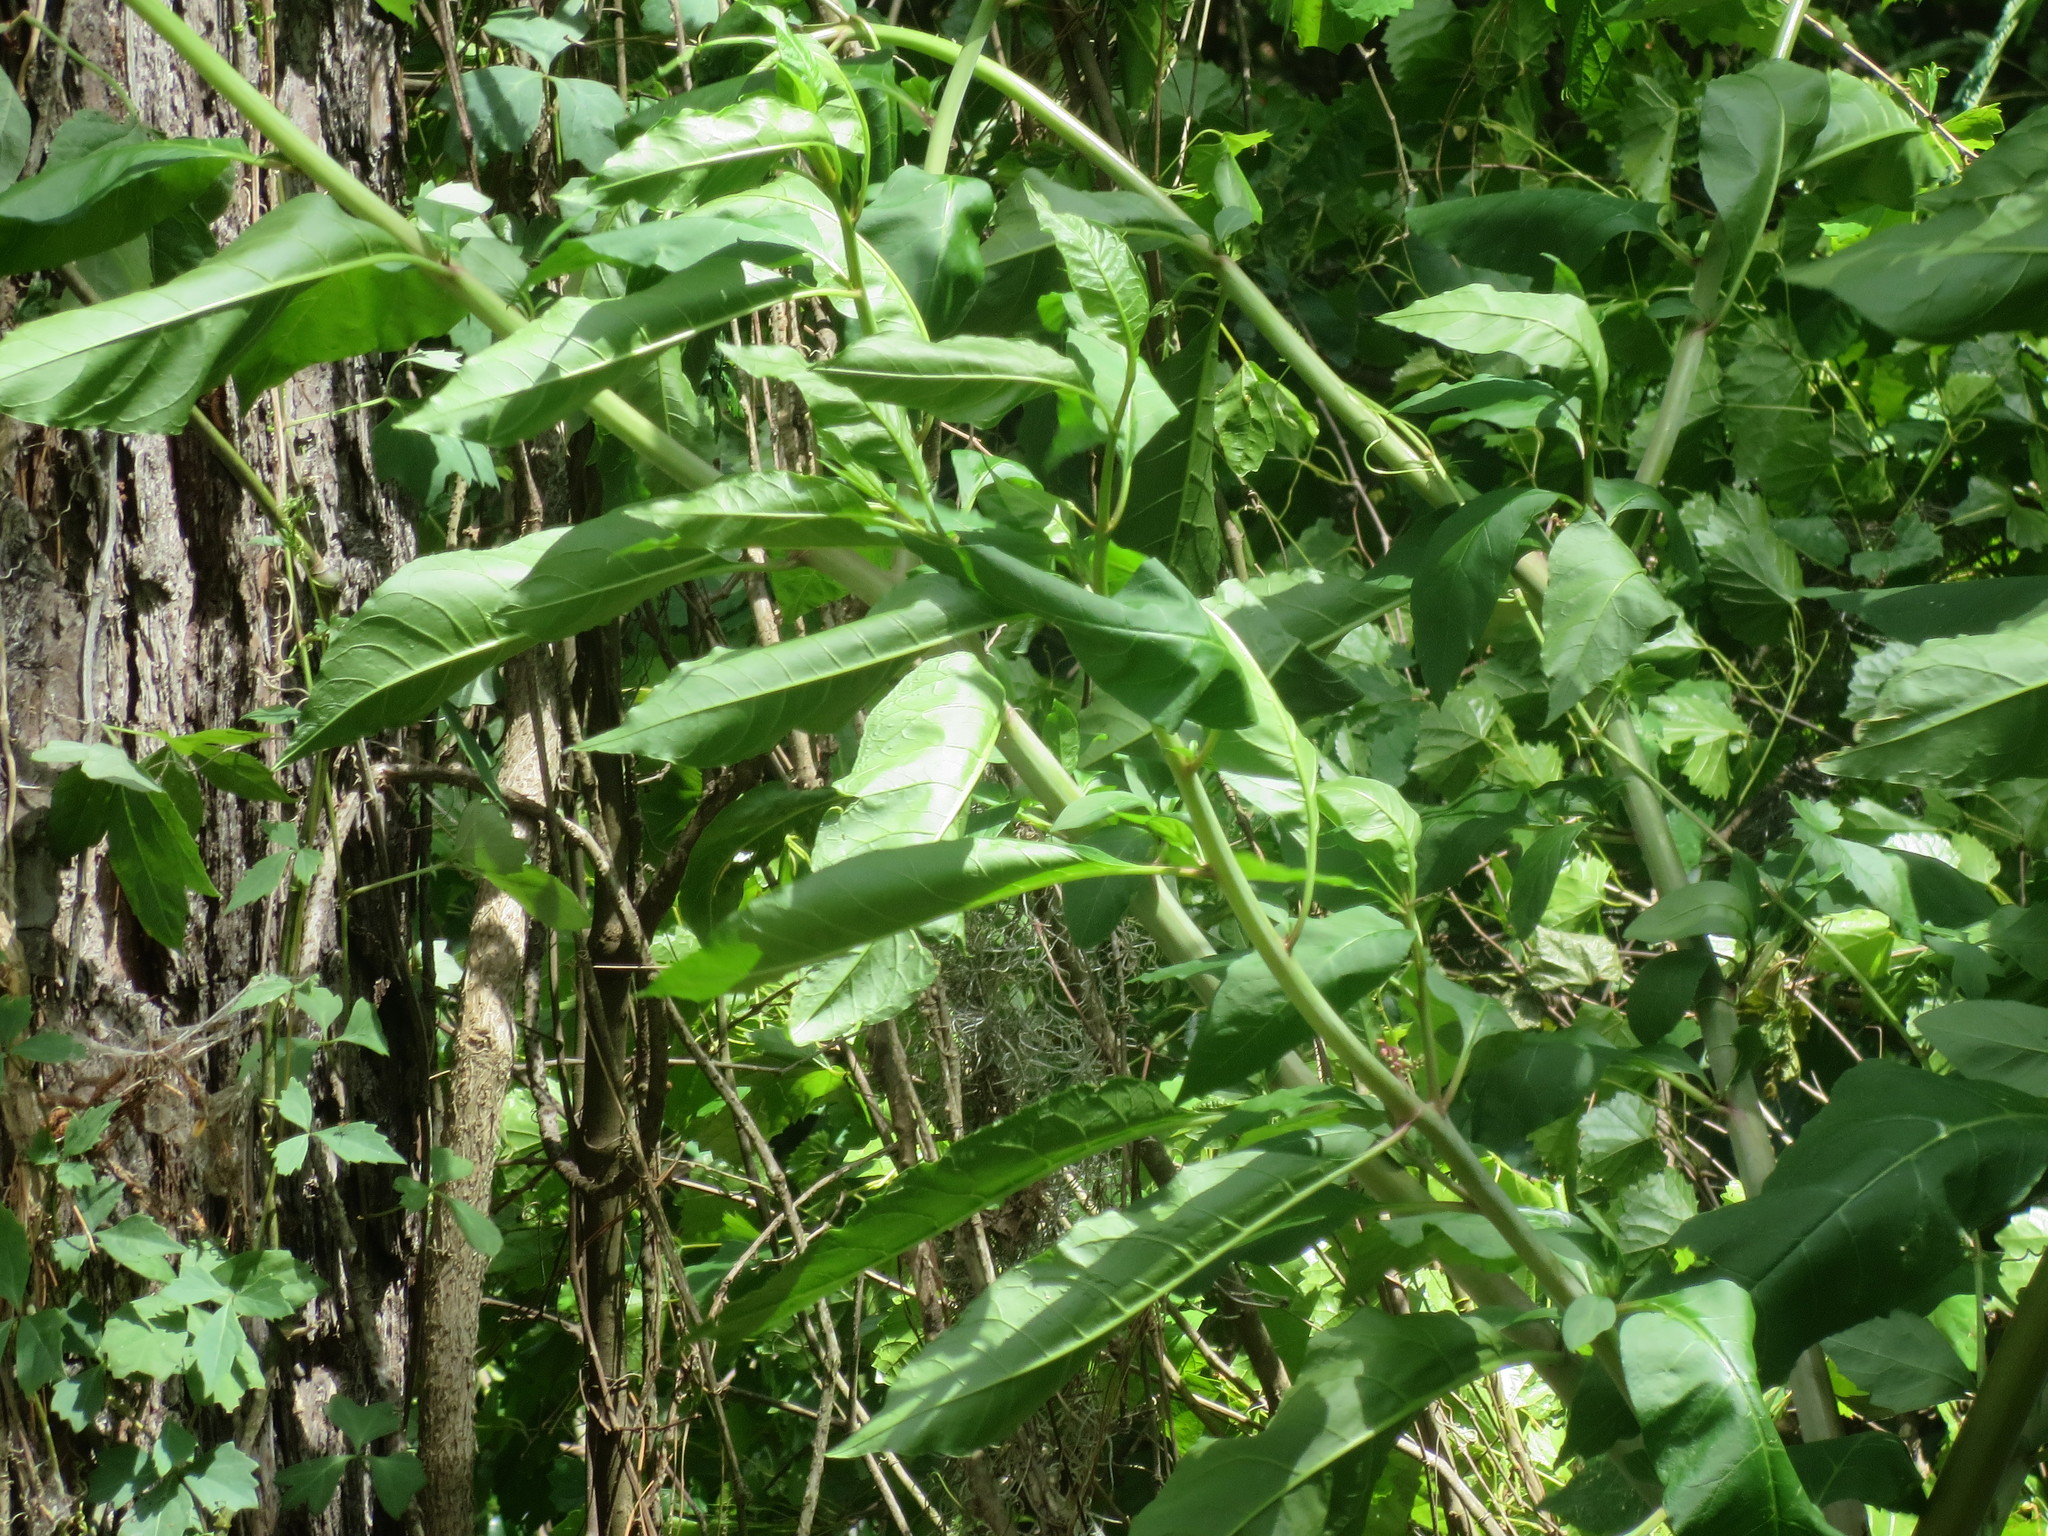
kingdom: Plantae
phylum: Tracheophyta
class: Magnoliopsida
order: Caryophyllales
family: Phytolaccaceae
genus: Phytolacca
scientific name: Phytolacca americana
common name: American pokeweed
